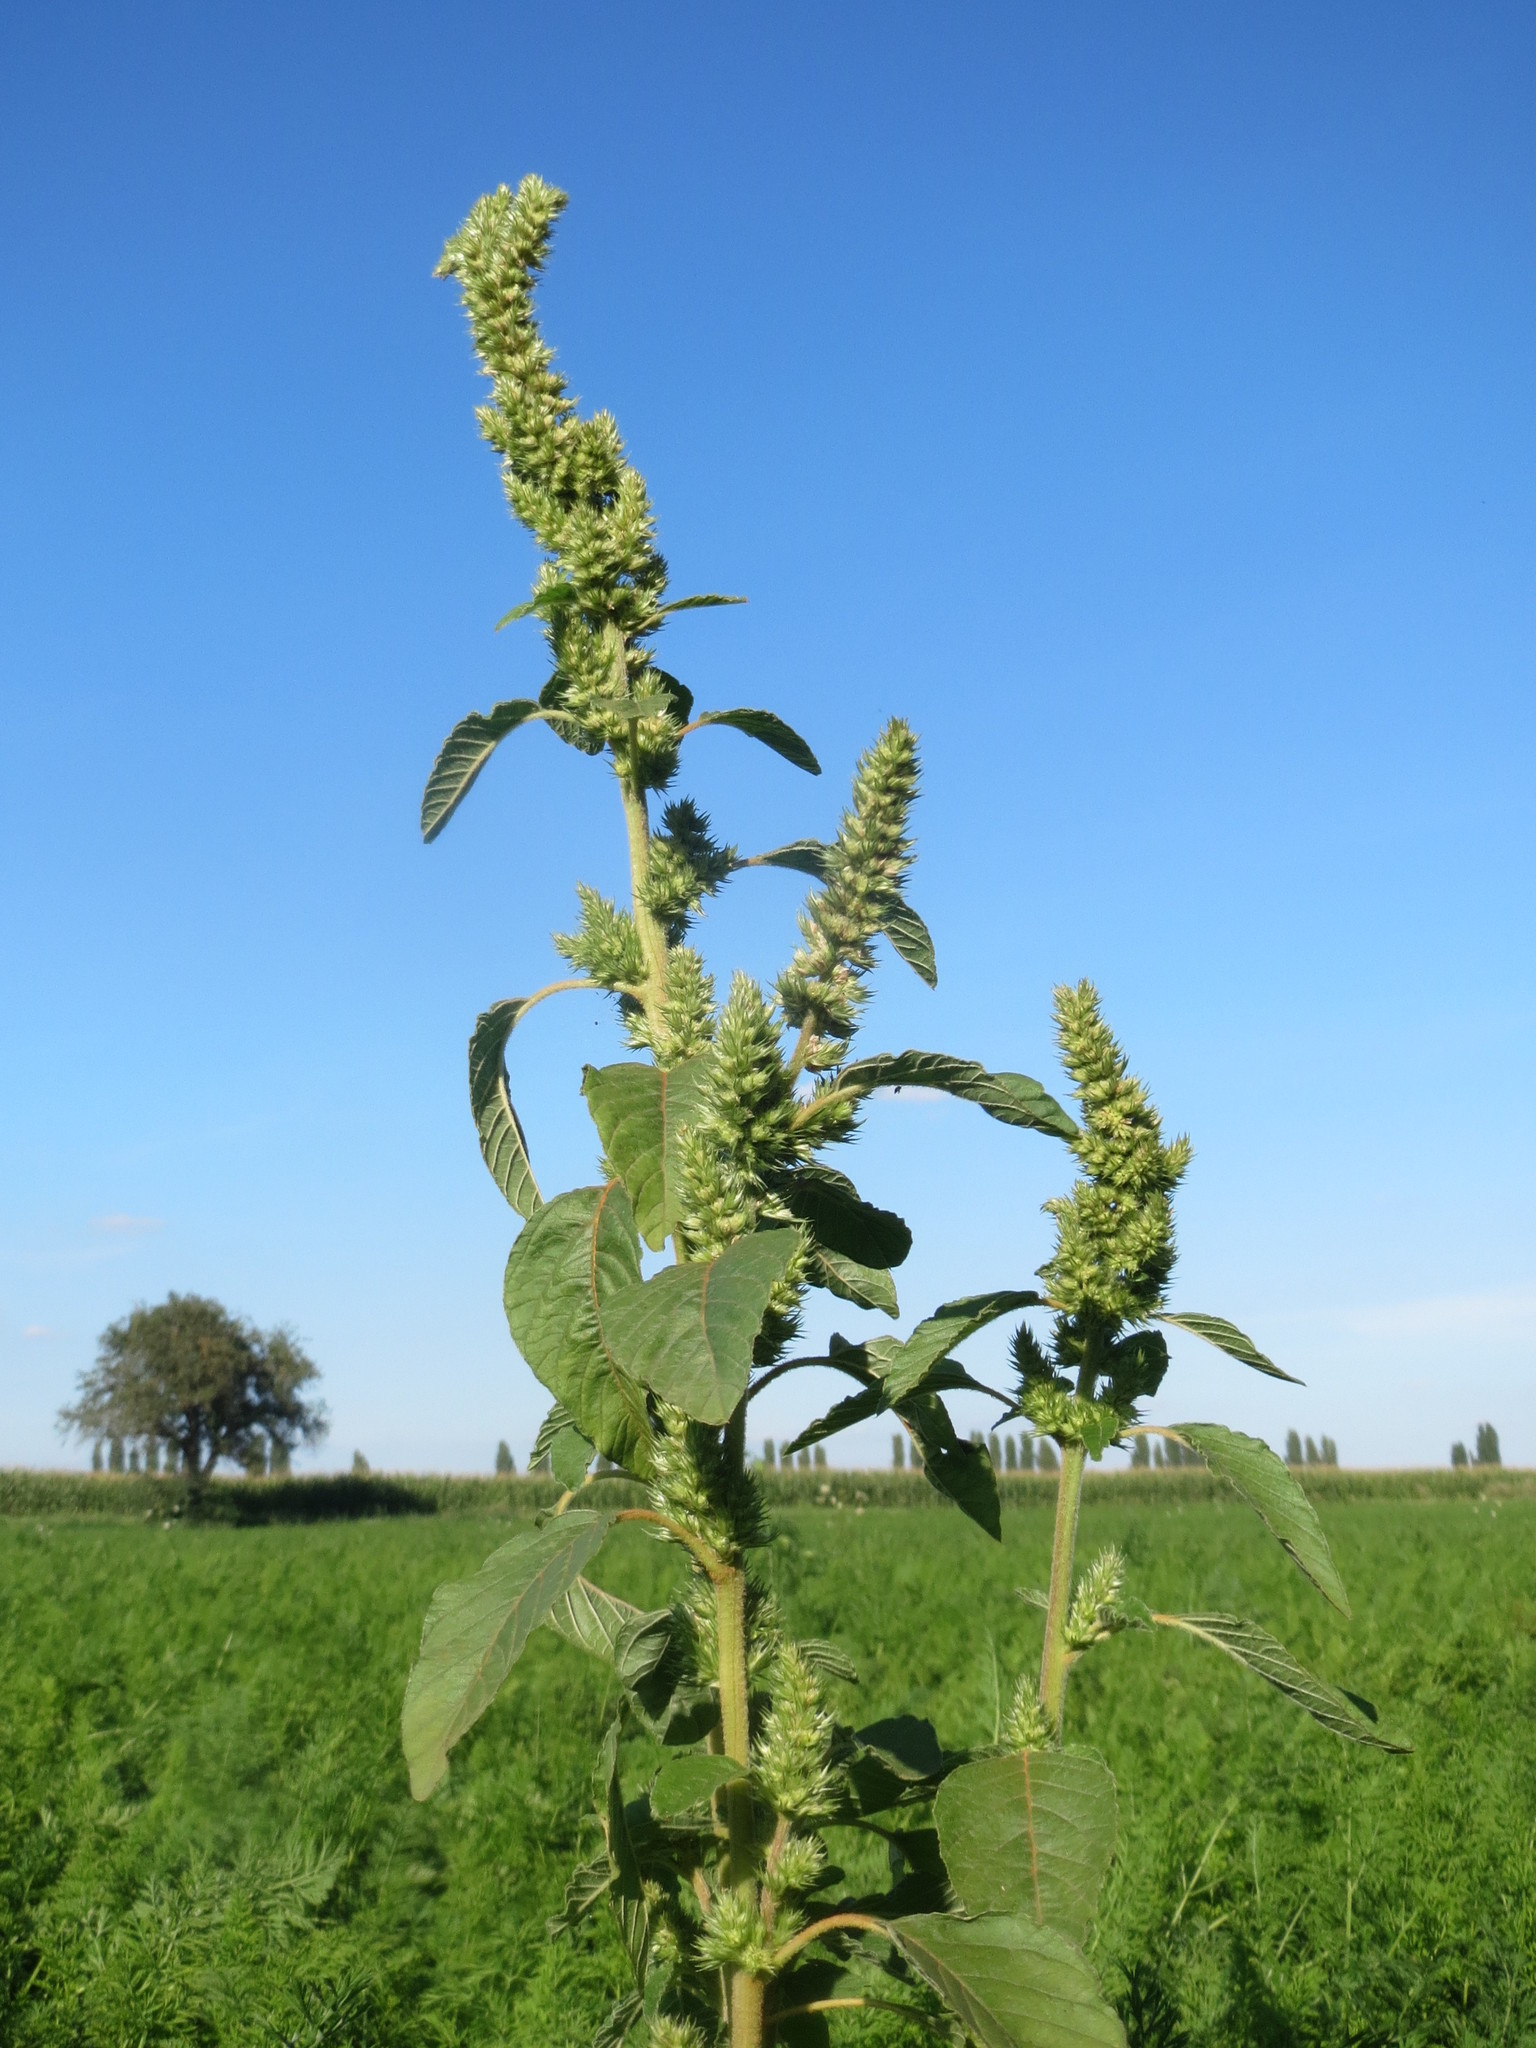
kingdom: Plantae
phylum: Tracheophyta
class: Magnoliopsida
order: Caryophyllales
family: Amaranthaceae
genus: Amaranthus
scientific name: Amaranthus retroflexus
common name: Redroot amaranth
